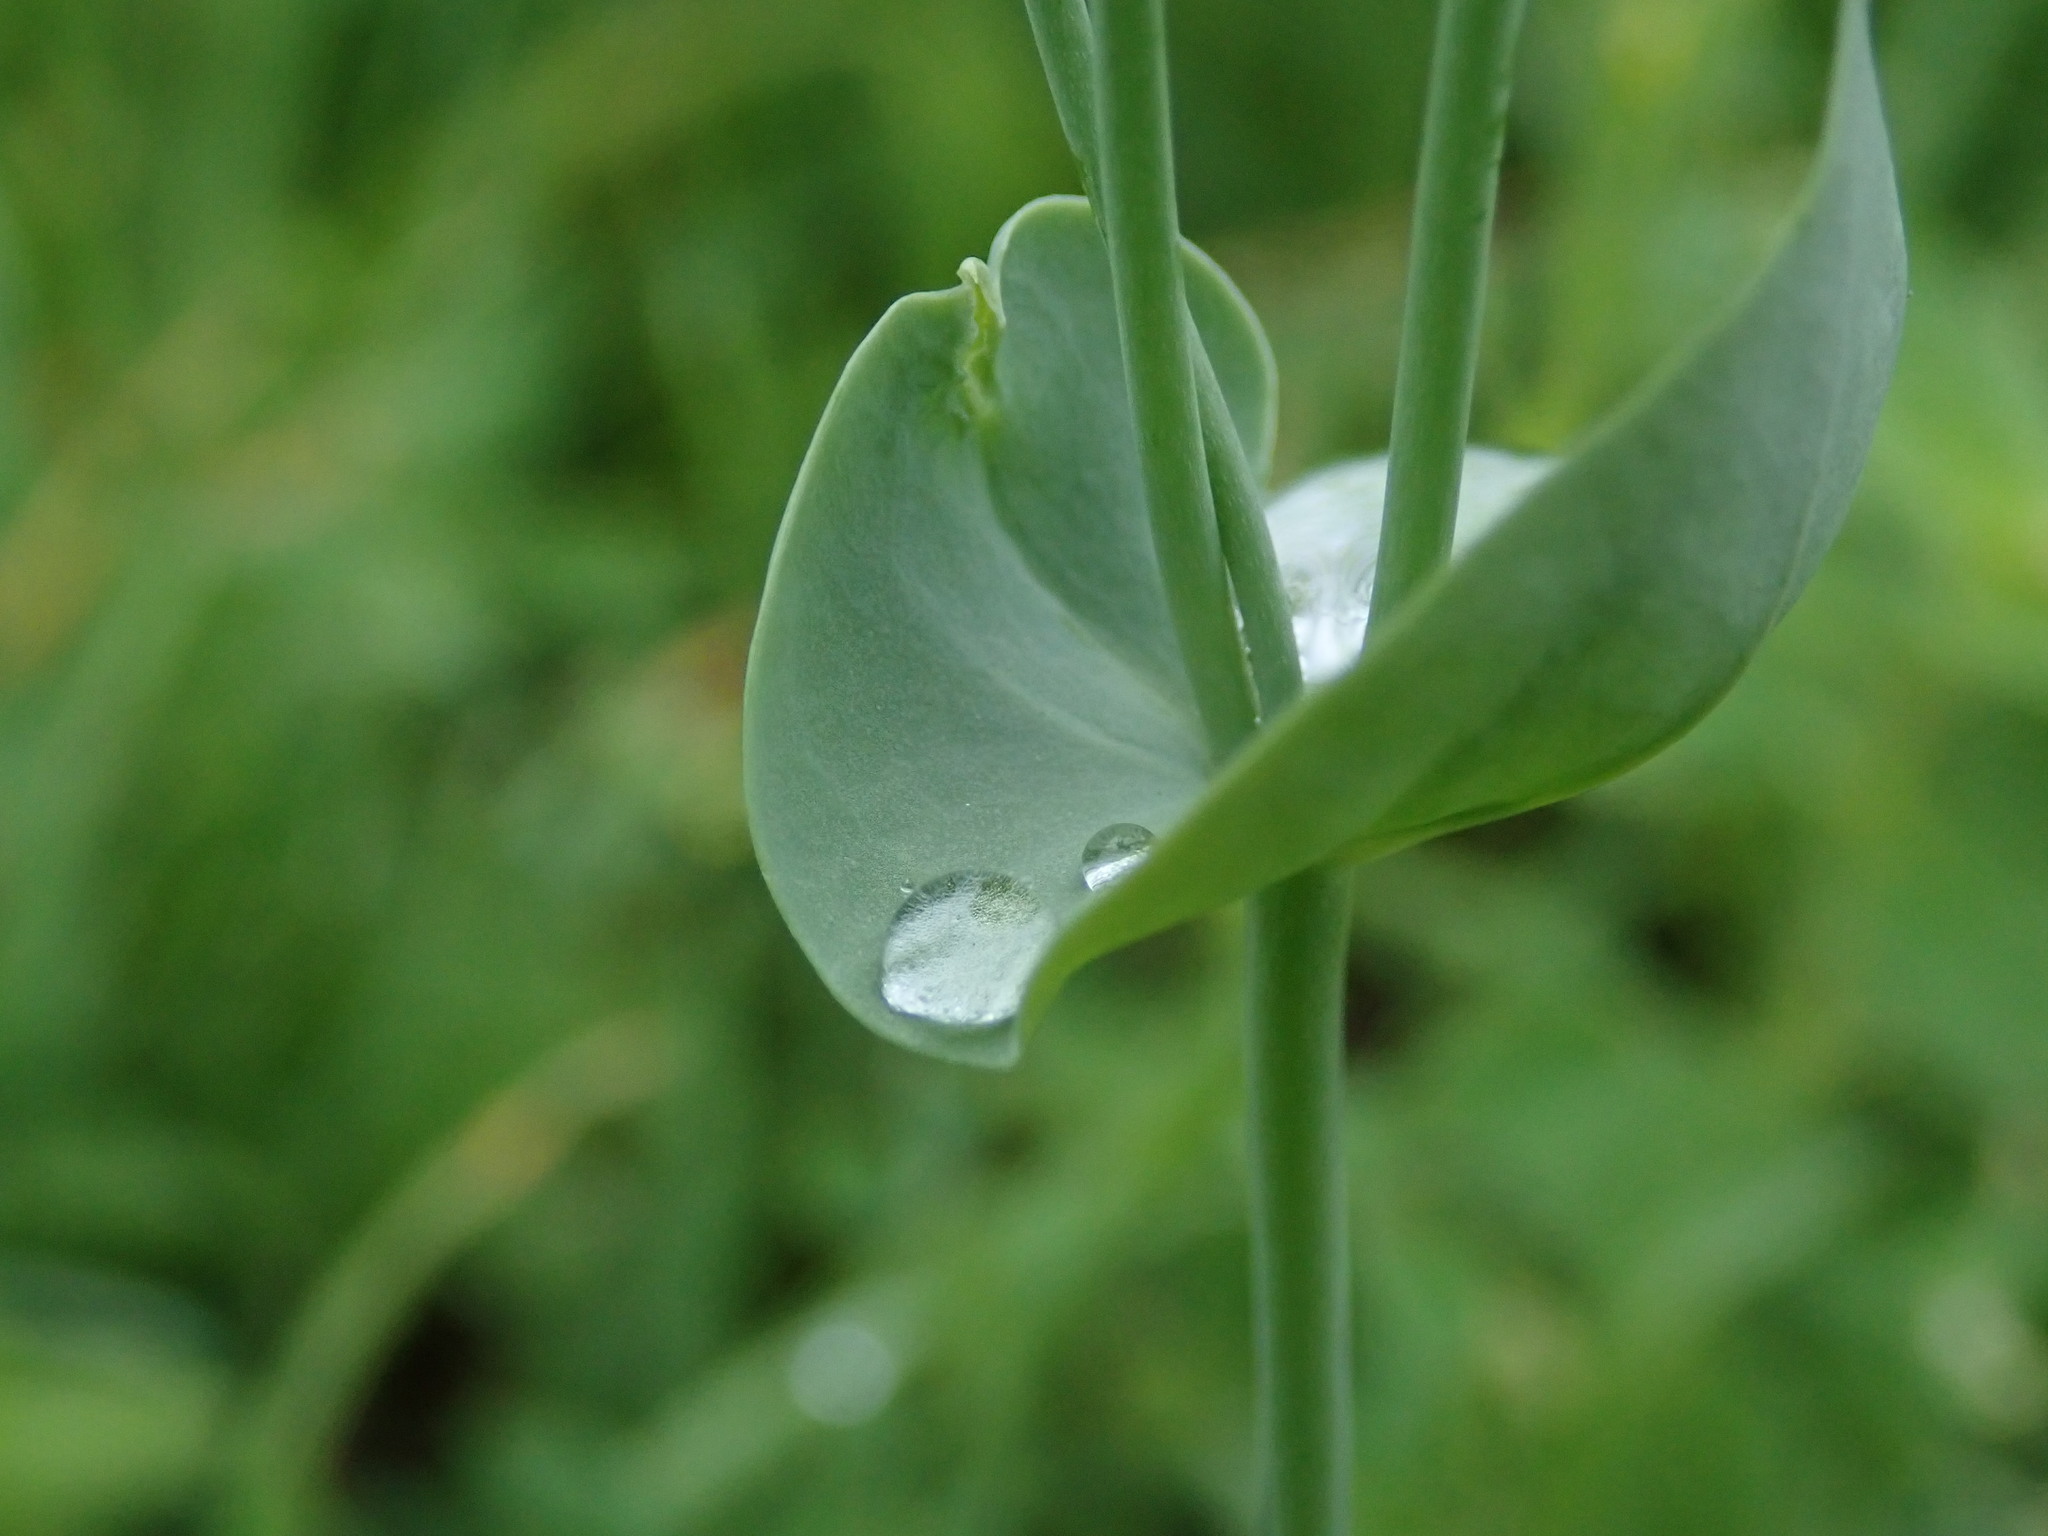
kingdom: Plantae
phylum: Tracheophyta
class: Magnoliopsida
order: Gentianales
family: Gentianaceae
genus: Blackstonia
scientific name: Blackstonia perfoliata
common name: Yellow-wort
